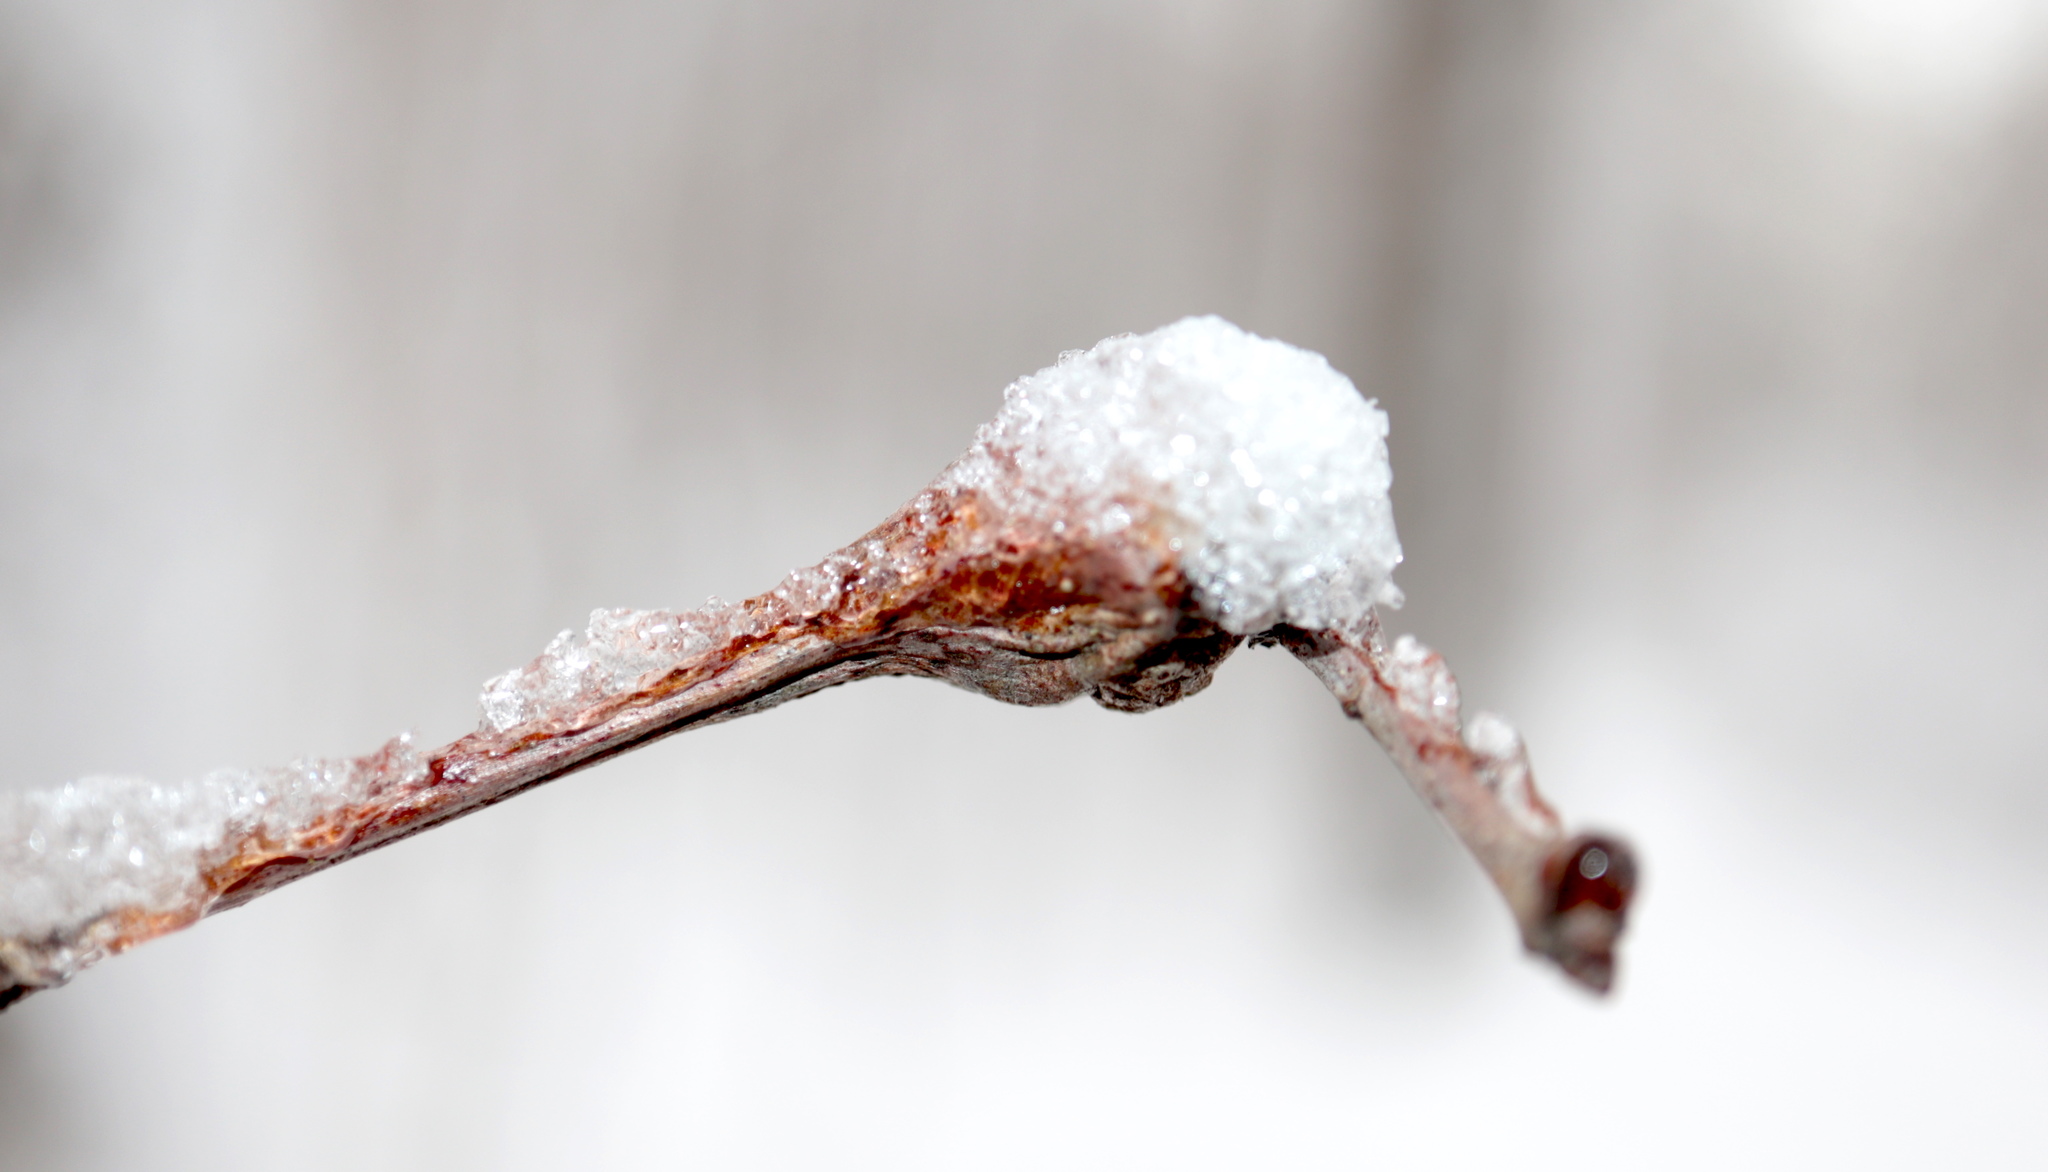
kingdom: Animalia
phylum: Arthropoda
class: Insecta
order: Hymenoptera
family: Cynipidae
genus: Callirhytis
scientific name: Callirhytis clavula
